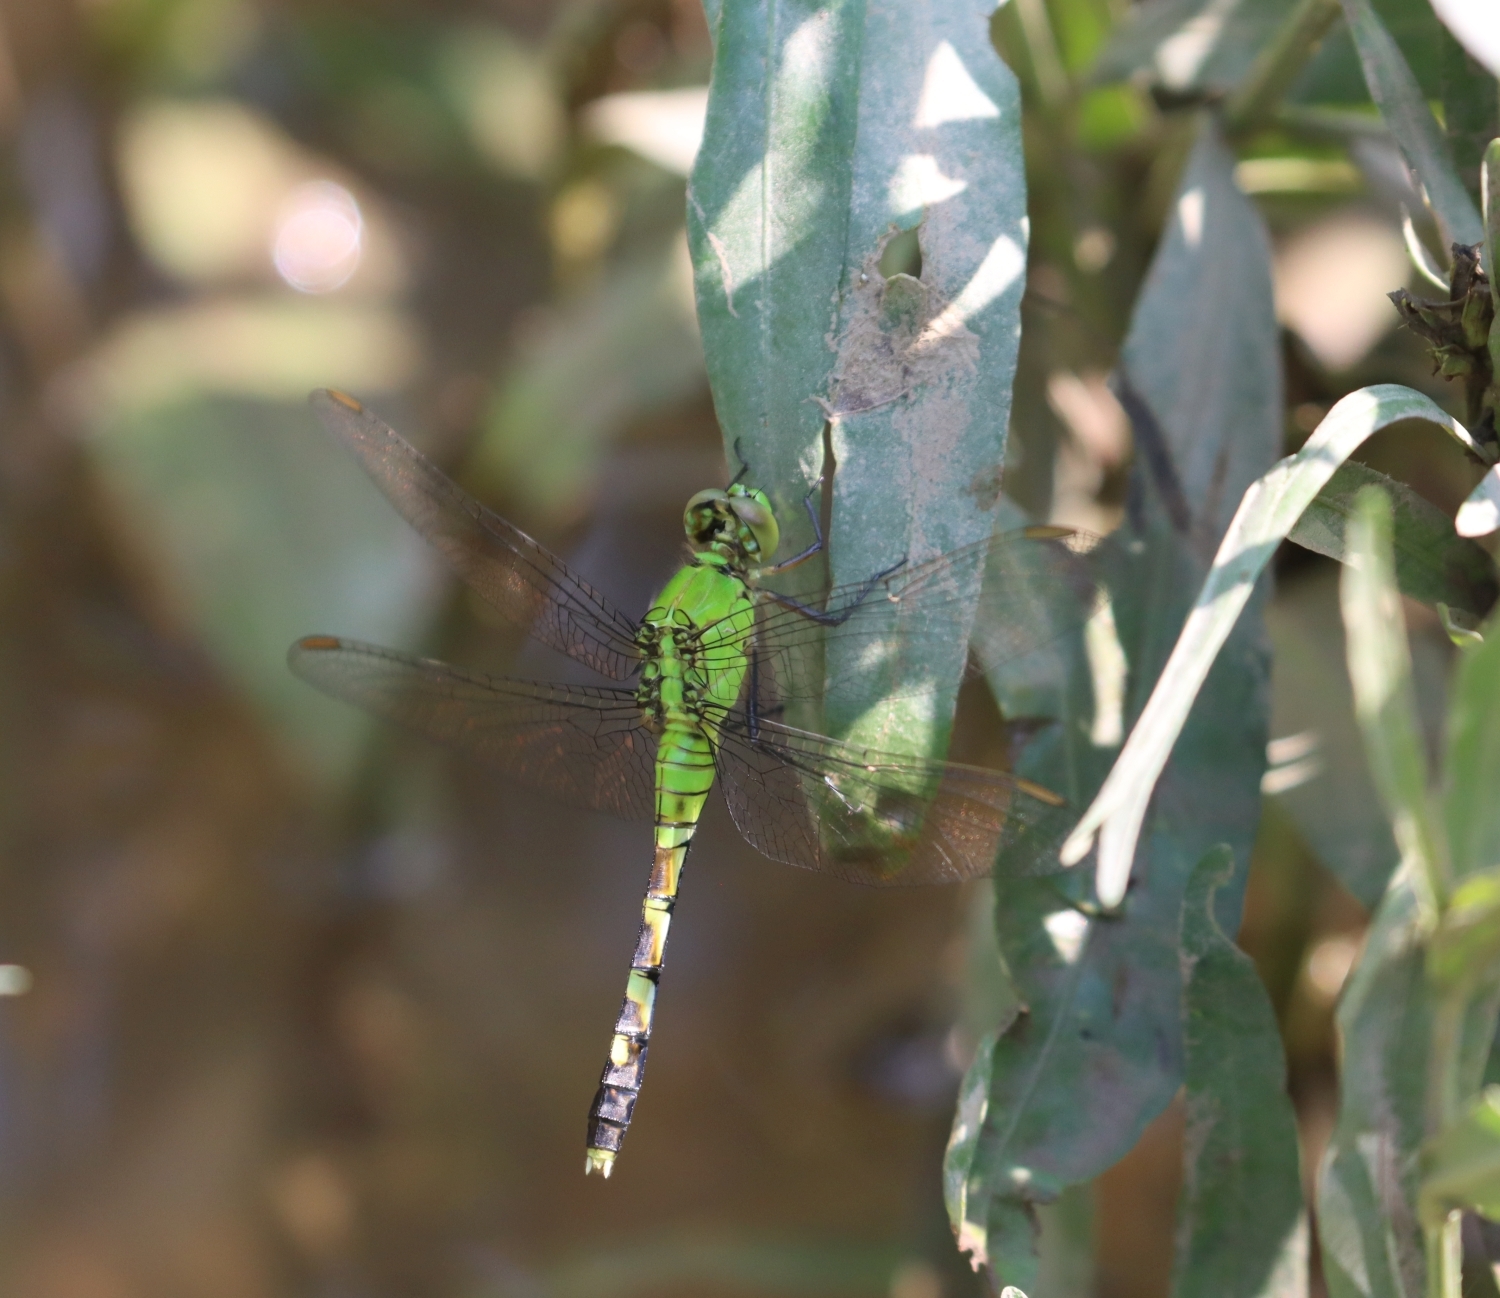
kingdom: Animalia
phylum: Arthropoda
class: Insecta
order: Odonata
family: Libellulidae
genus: Erythemis
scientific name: Erythemis simplicicollis
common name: Eastern pondhawk
